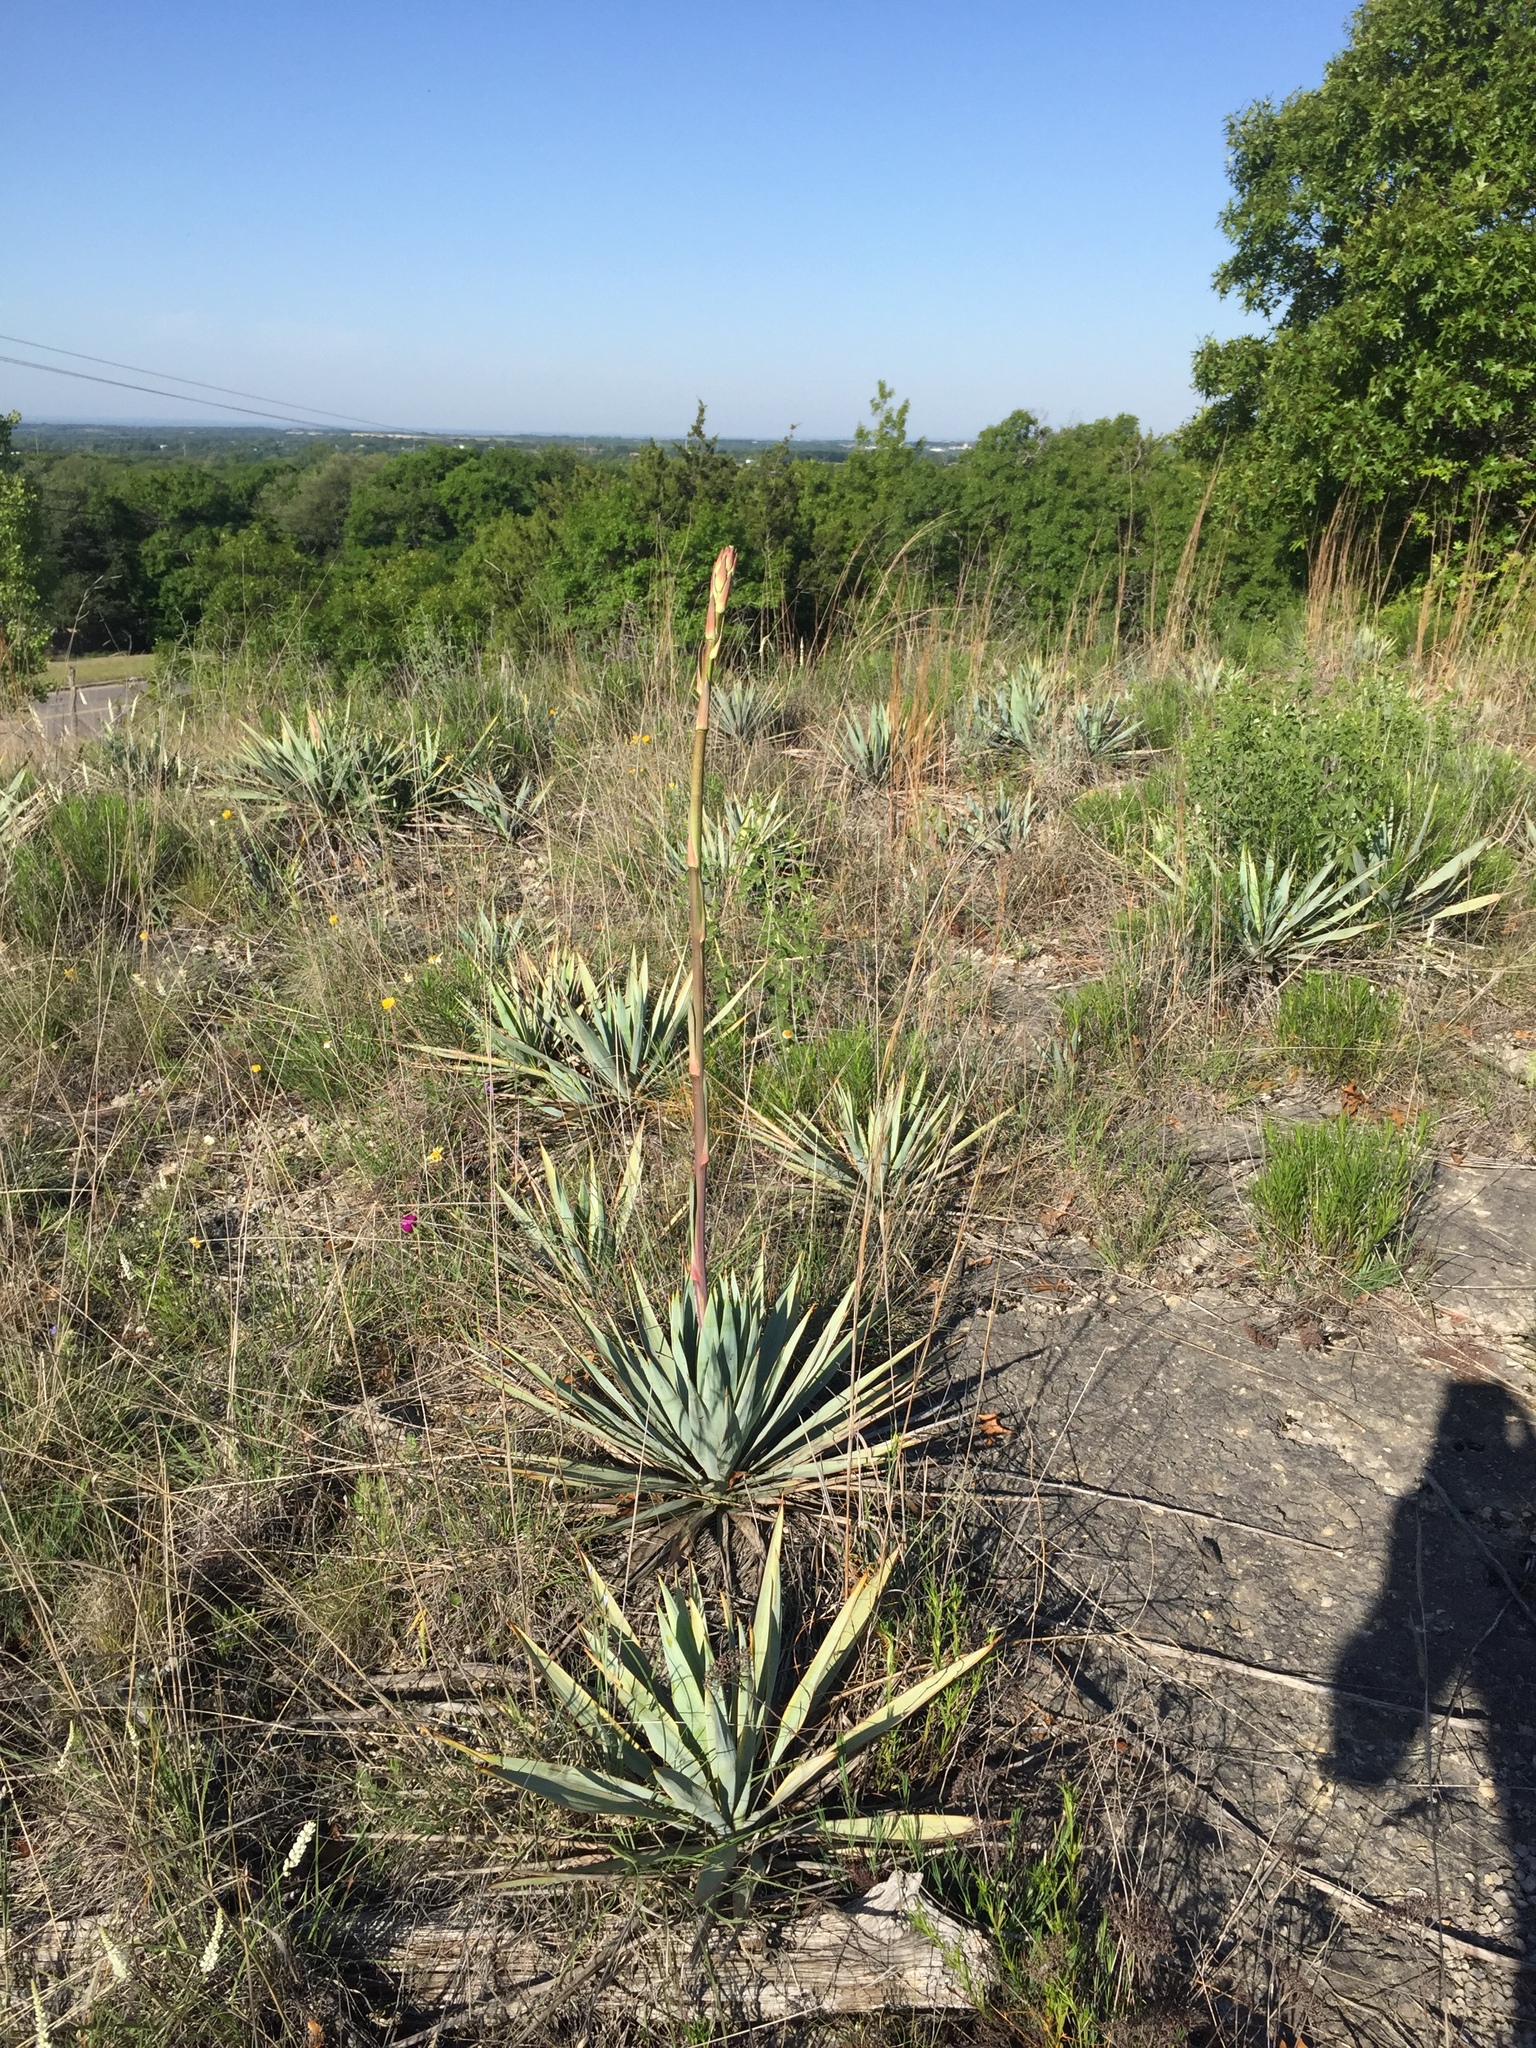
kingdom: Plantae
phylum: Tracheophyta
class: Liliopsida
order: Asparagales
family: Asparagaceae
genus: Yucca
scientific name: Yucca pallida
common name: Pale leaf yucca
